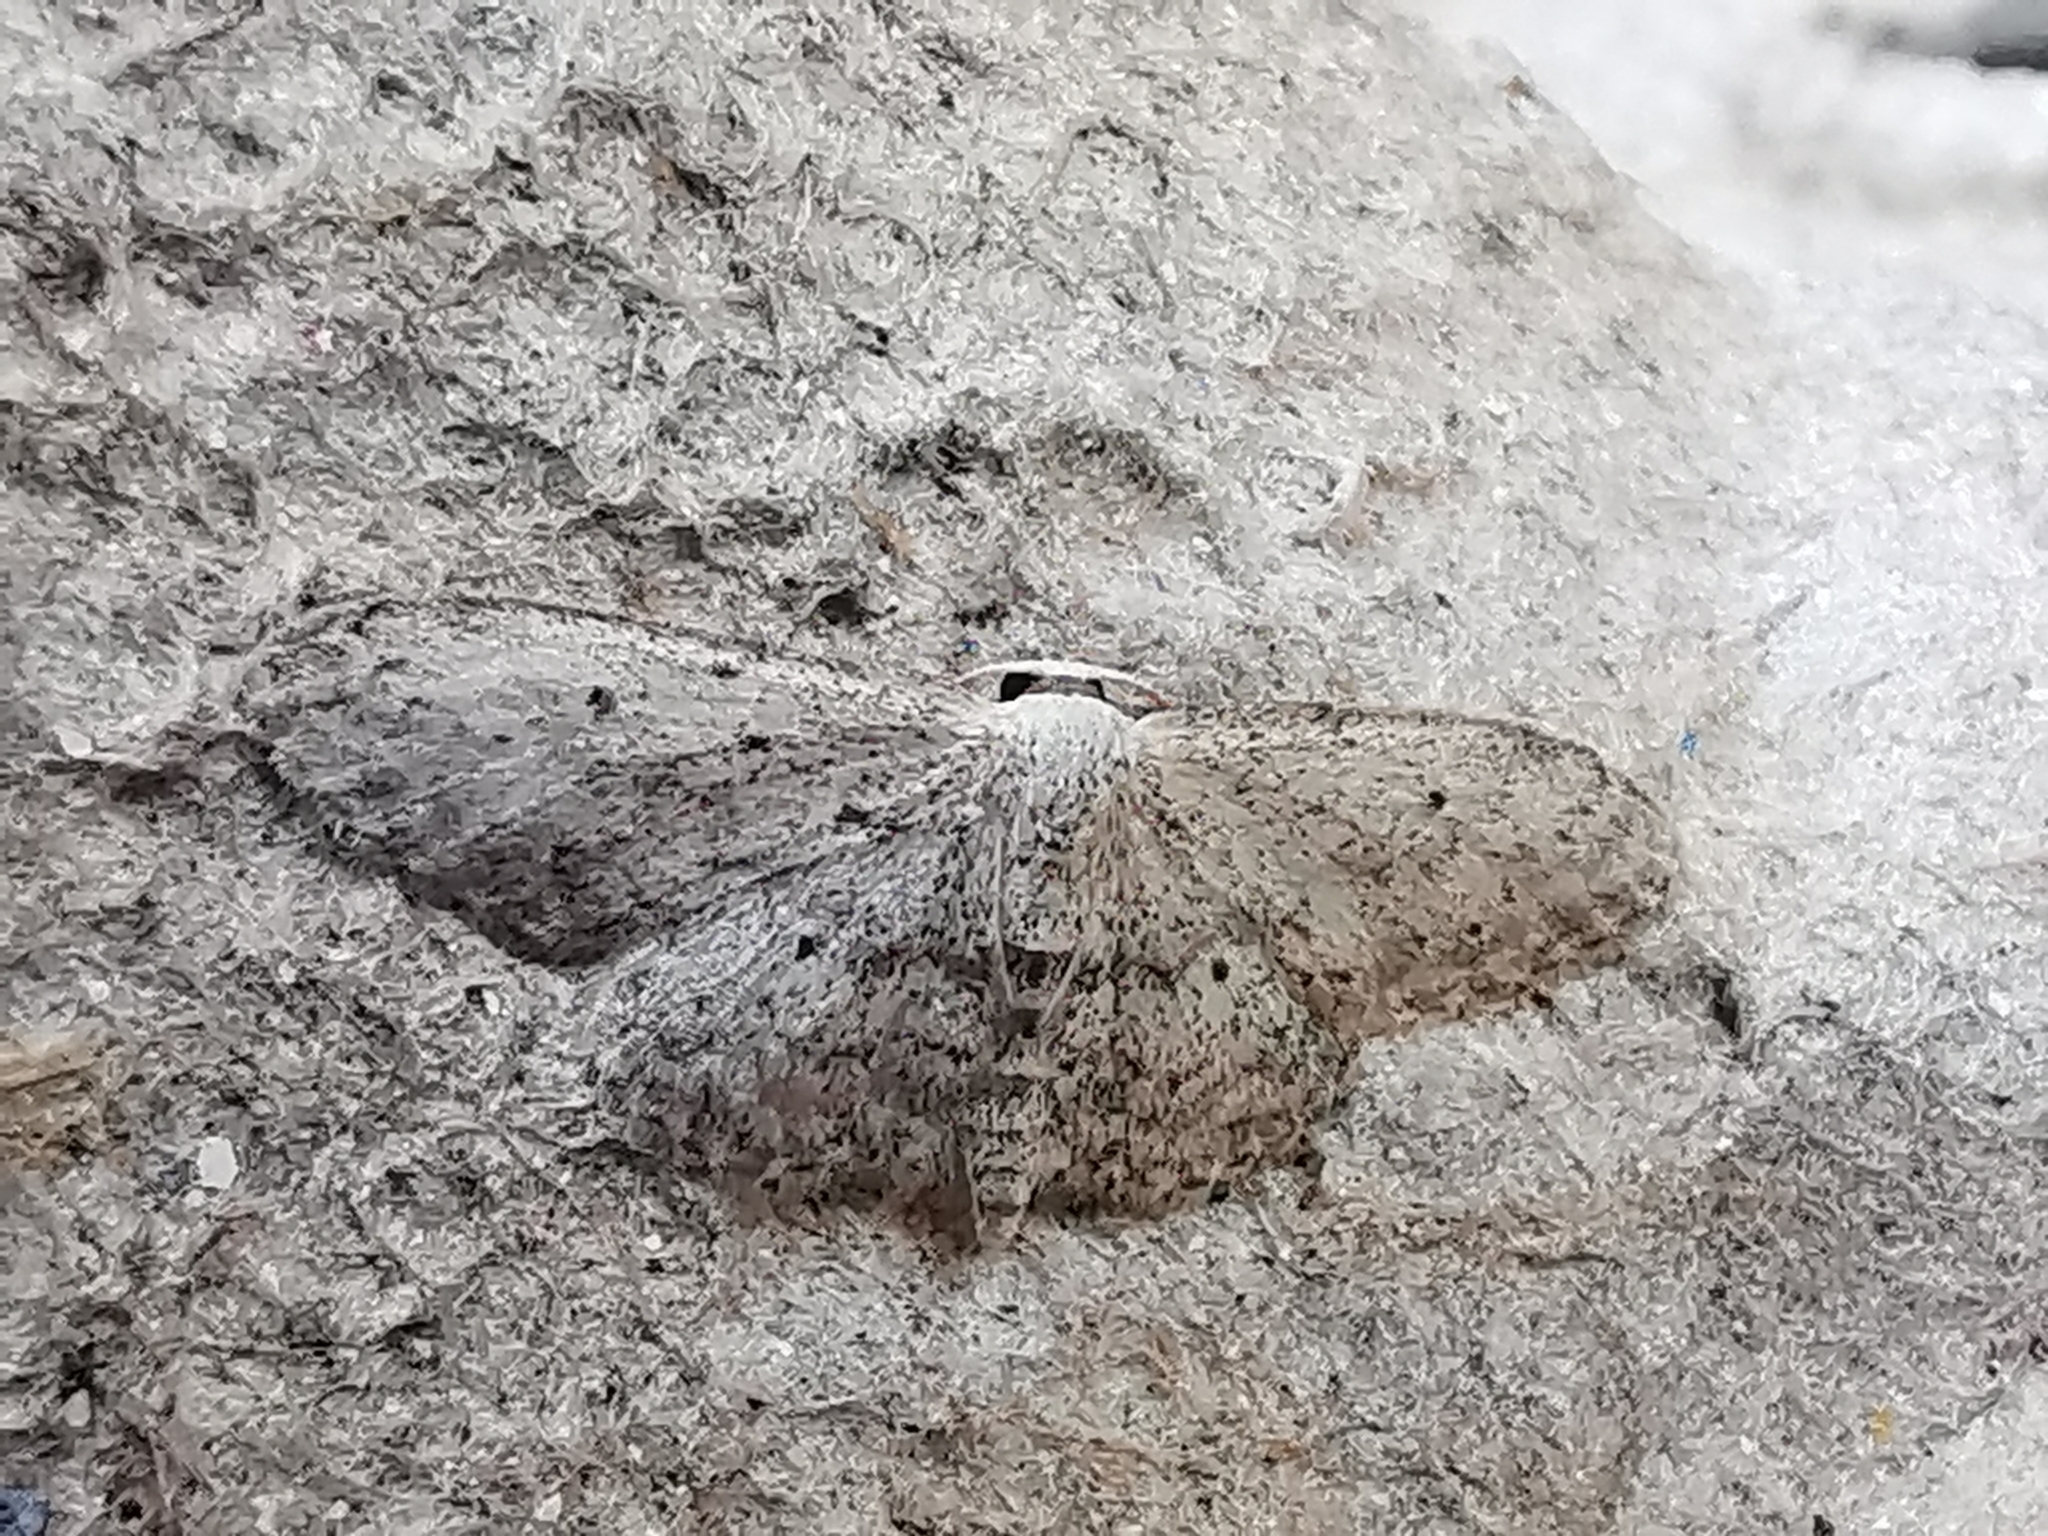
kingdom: Animalia
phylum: Arthropoda
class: Insecta
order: Lepidoptera
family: Geometridae
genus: Idaea
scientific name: Idaea seriata
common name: Small dusty wave
